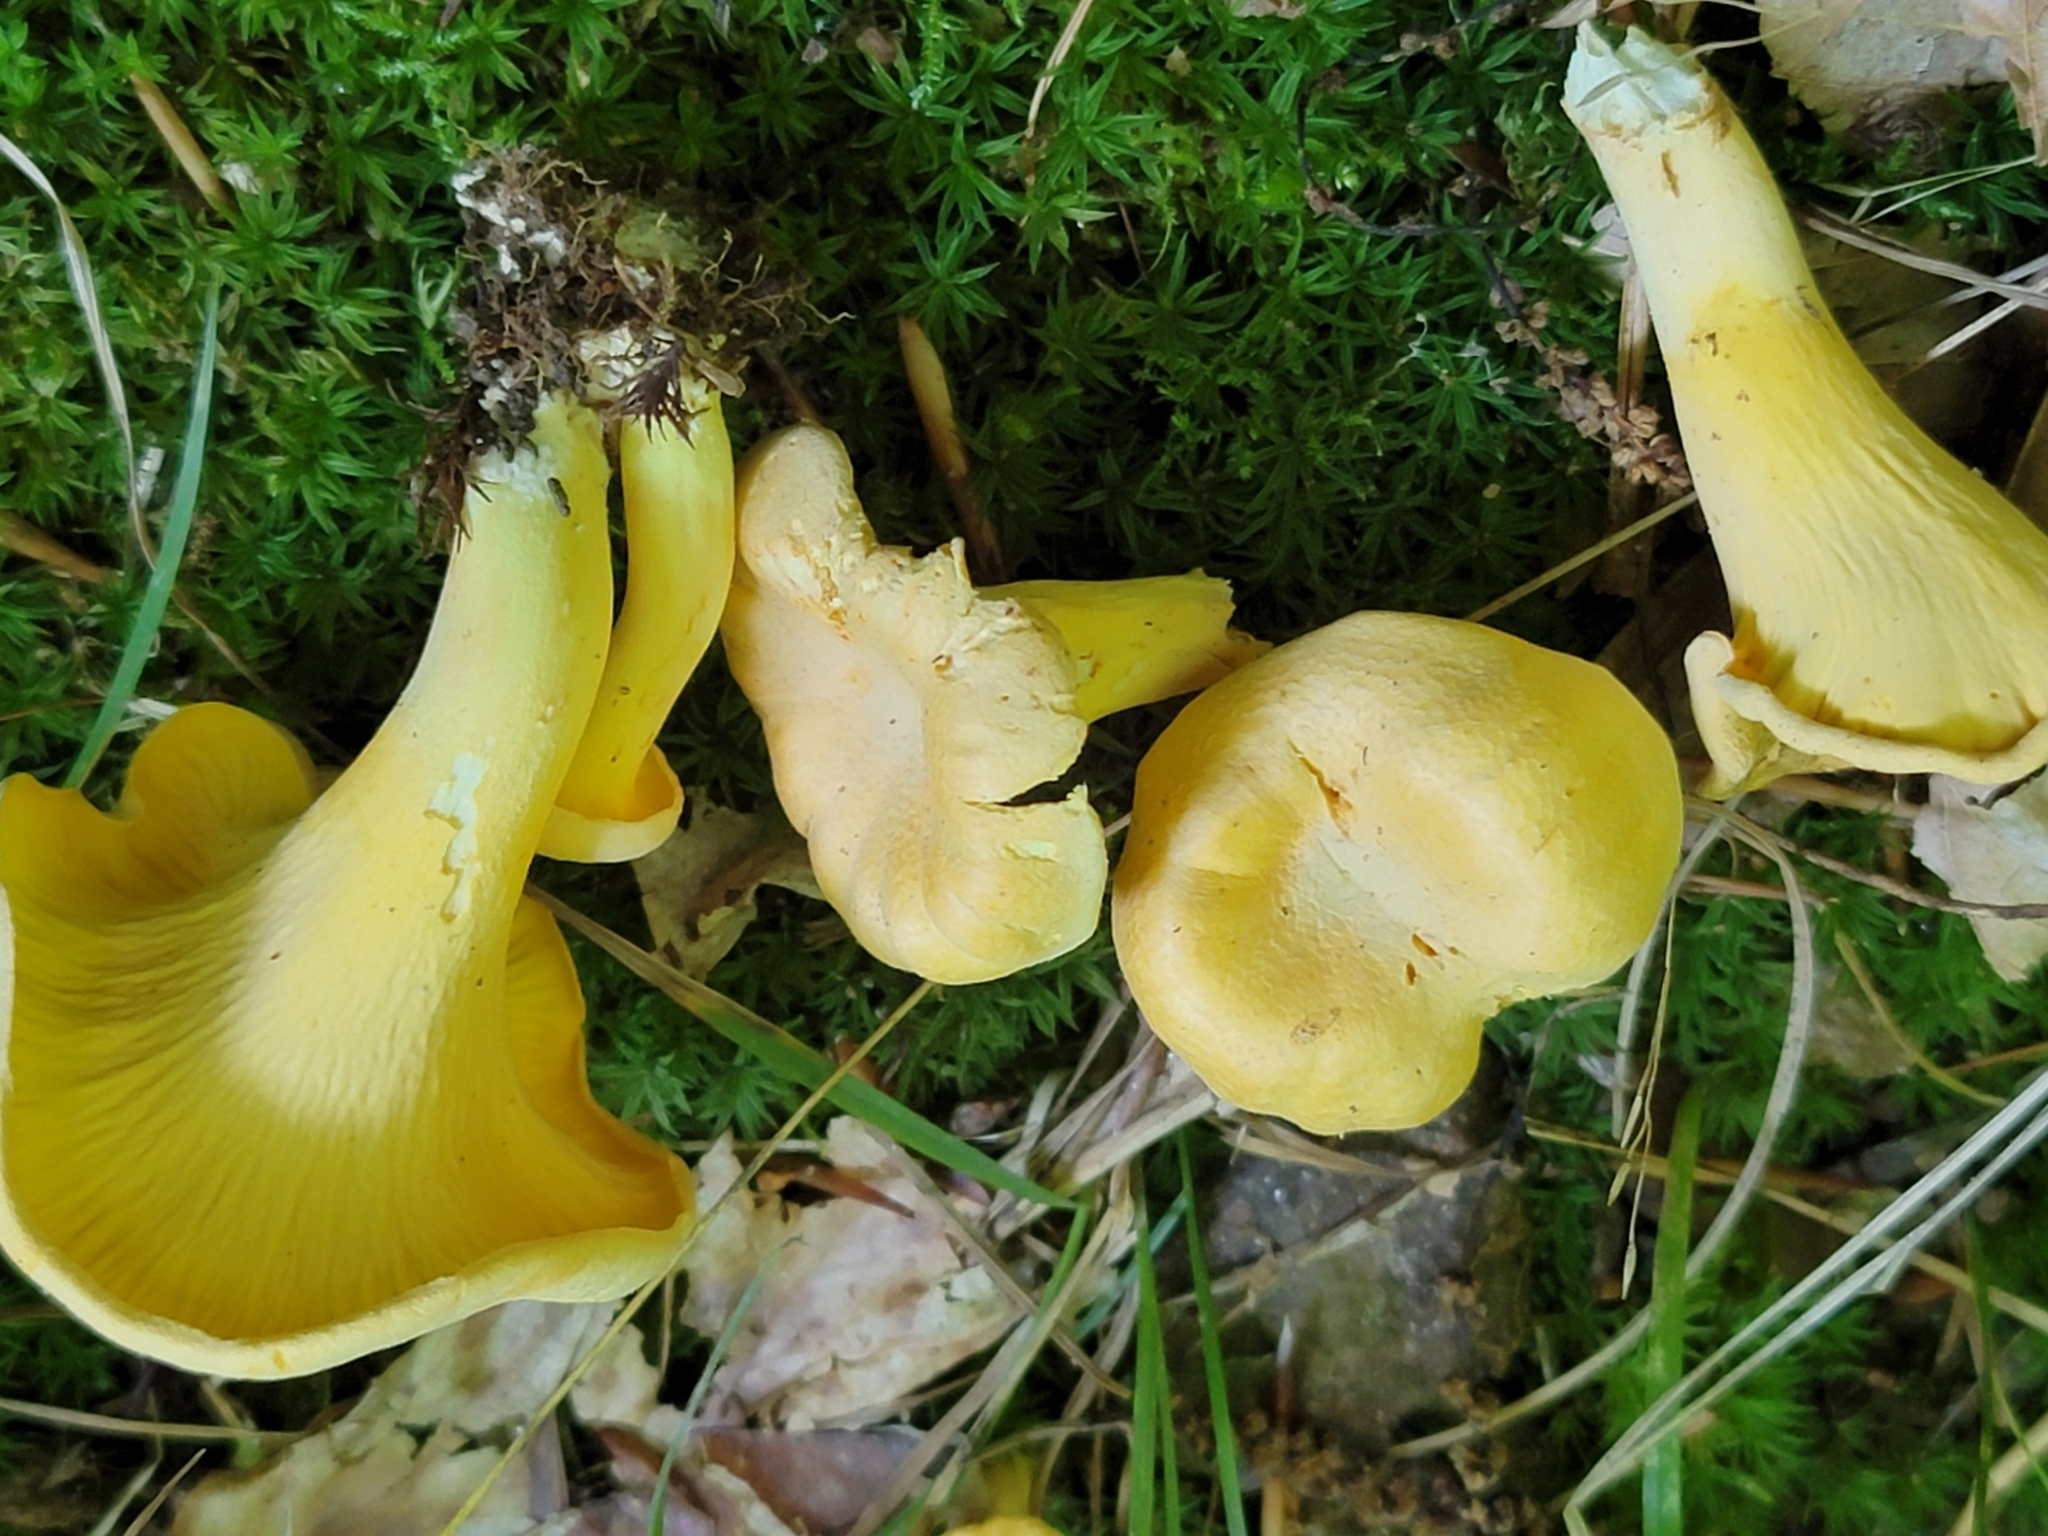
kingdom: Fungi
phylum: Basidiomycota
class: Agaricomycetes
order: Cantharellales
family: Hydnaceae
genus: Cantharellus
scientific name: Cantharellus lateritius
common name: Smooth chanterelle
